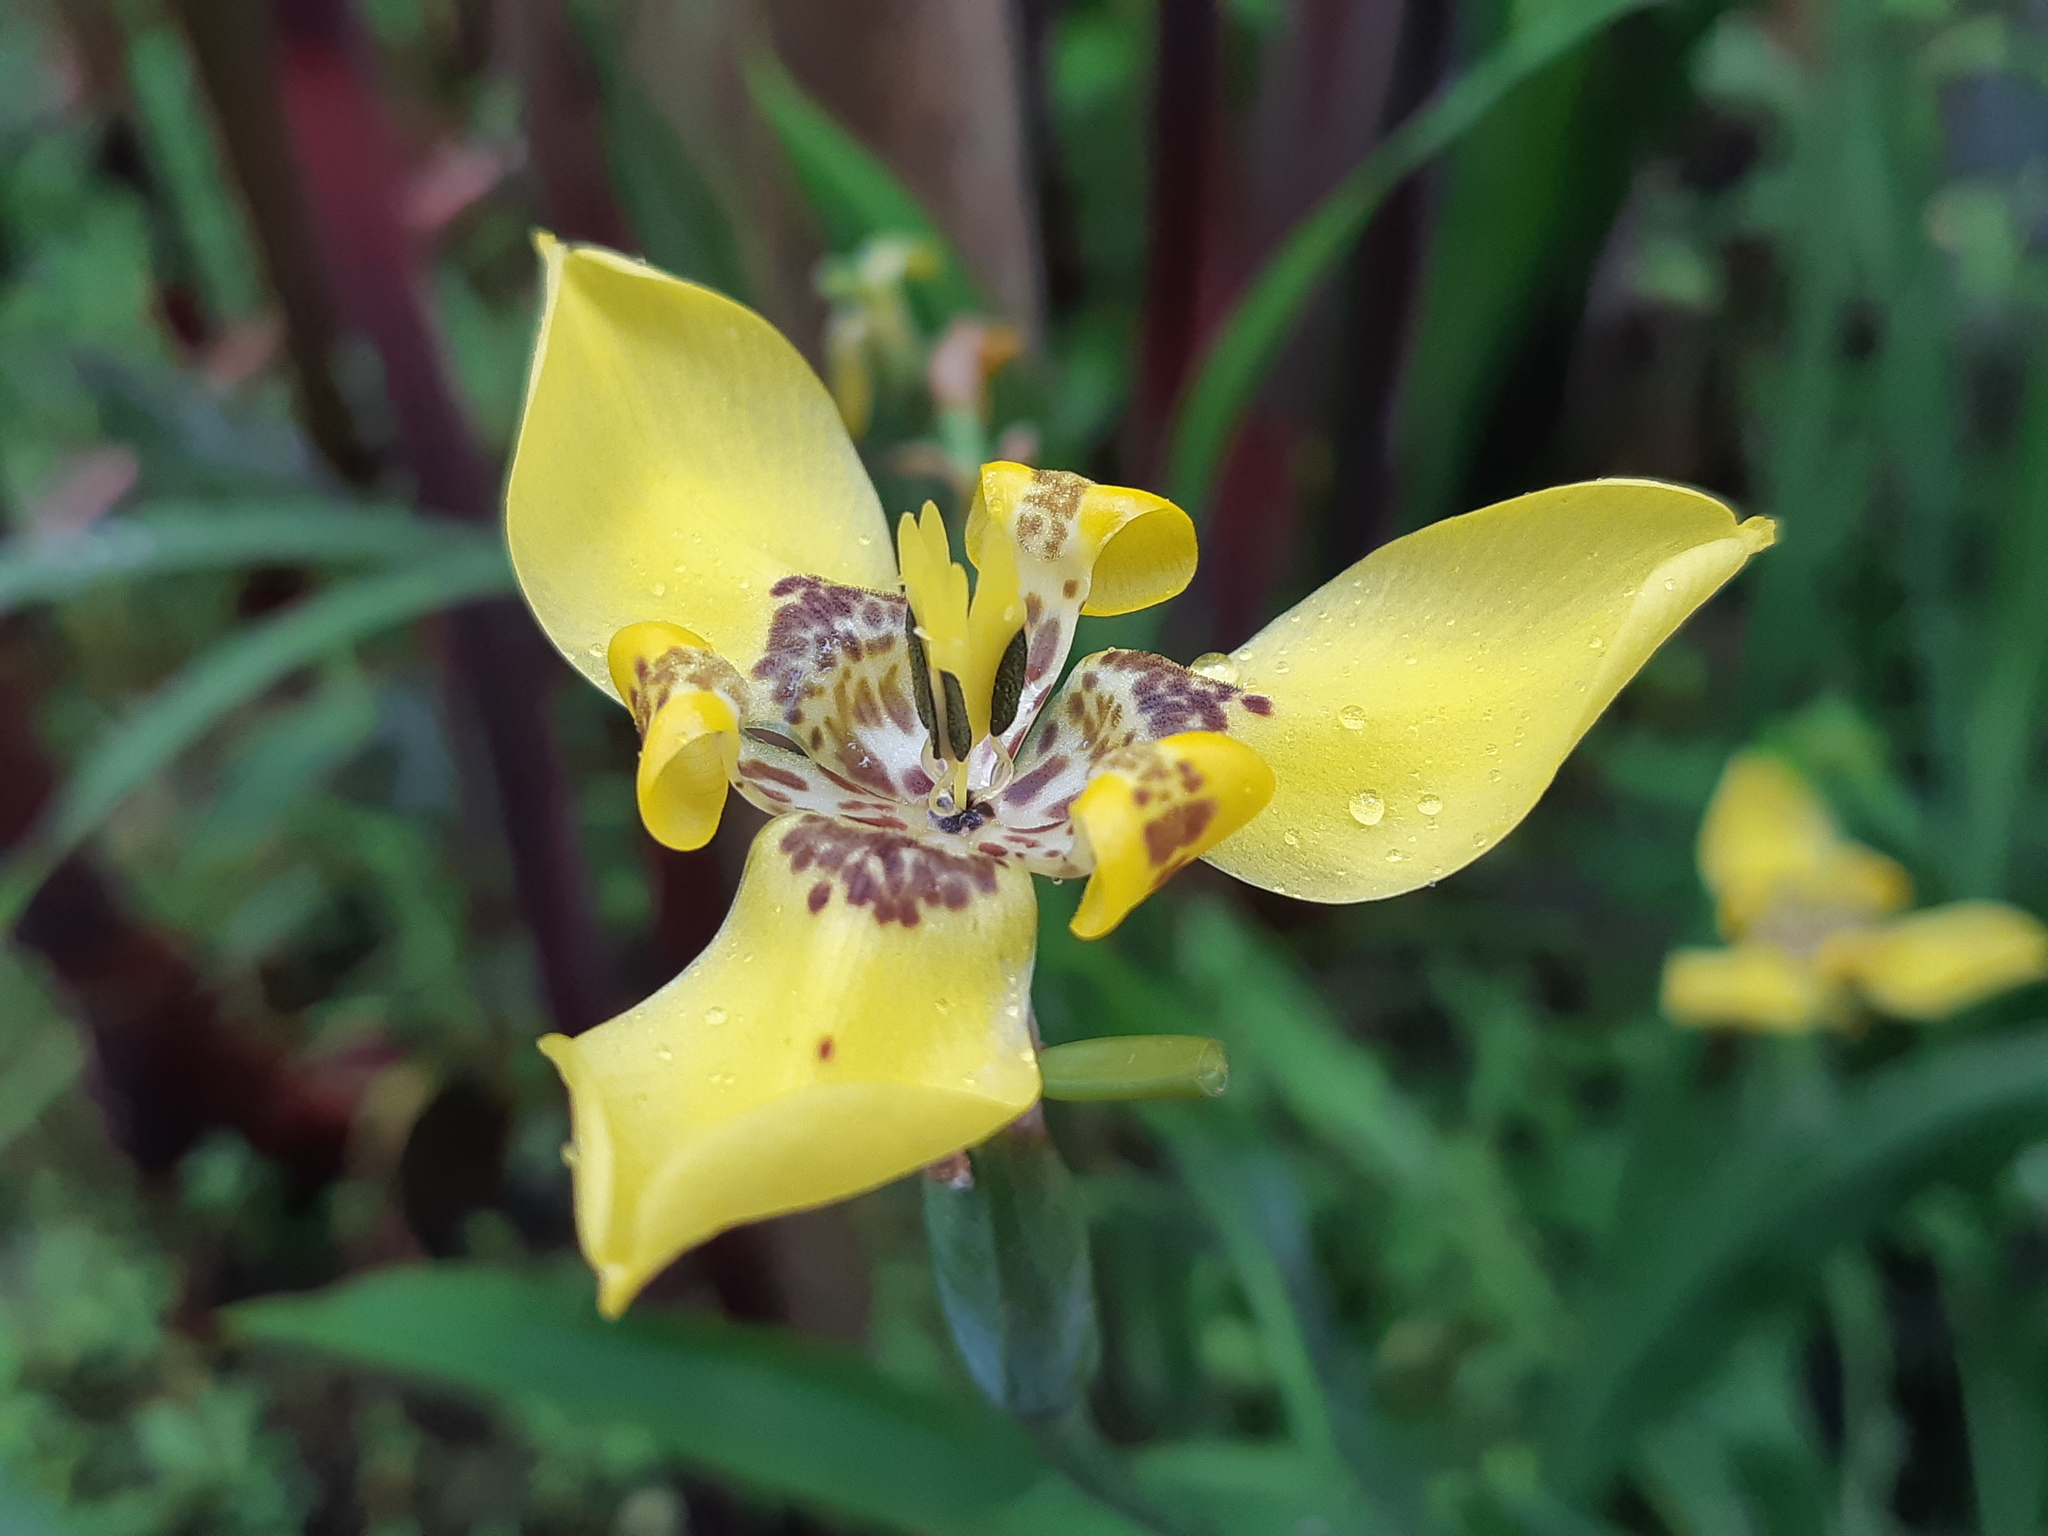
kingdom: Plantae
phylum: Tracheophyta
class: Liliopsida
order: Asparagales
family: Iridaceae
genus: Trimezia
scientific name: Trimezia steyermarkii
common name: Trimezia
